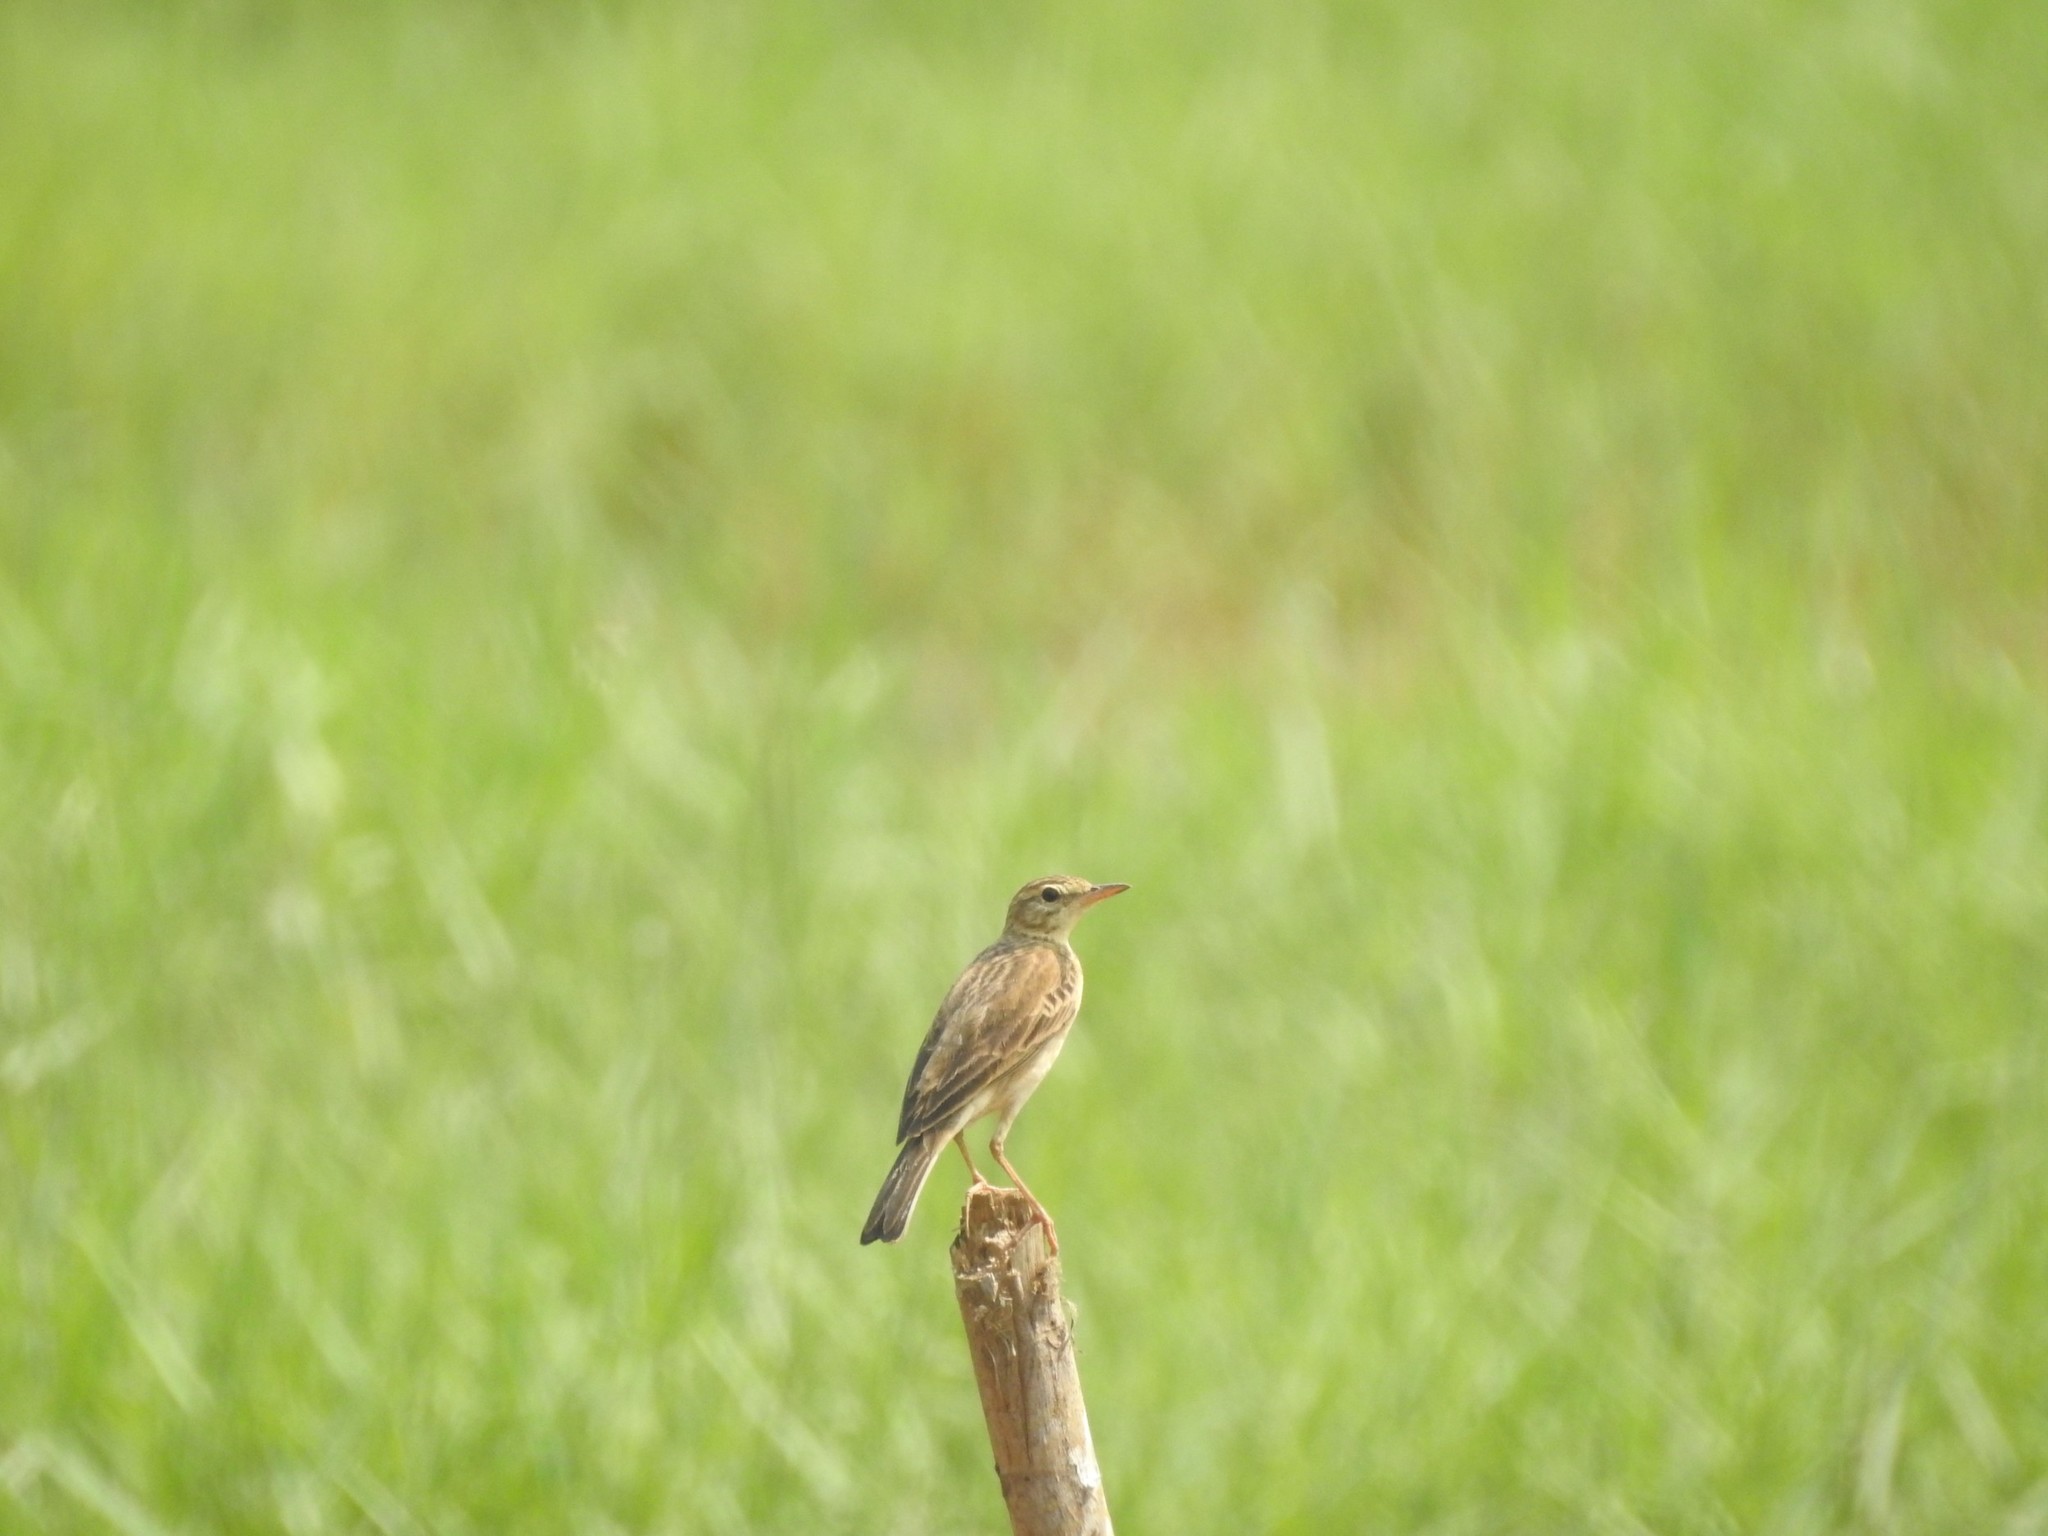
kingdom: Animalia
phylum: Chordata
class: Aves
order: Passeriformes
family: Motacillidae
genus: Anthus
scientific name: Anthus rufulus
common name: Paddyfield pipit
